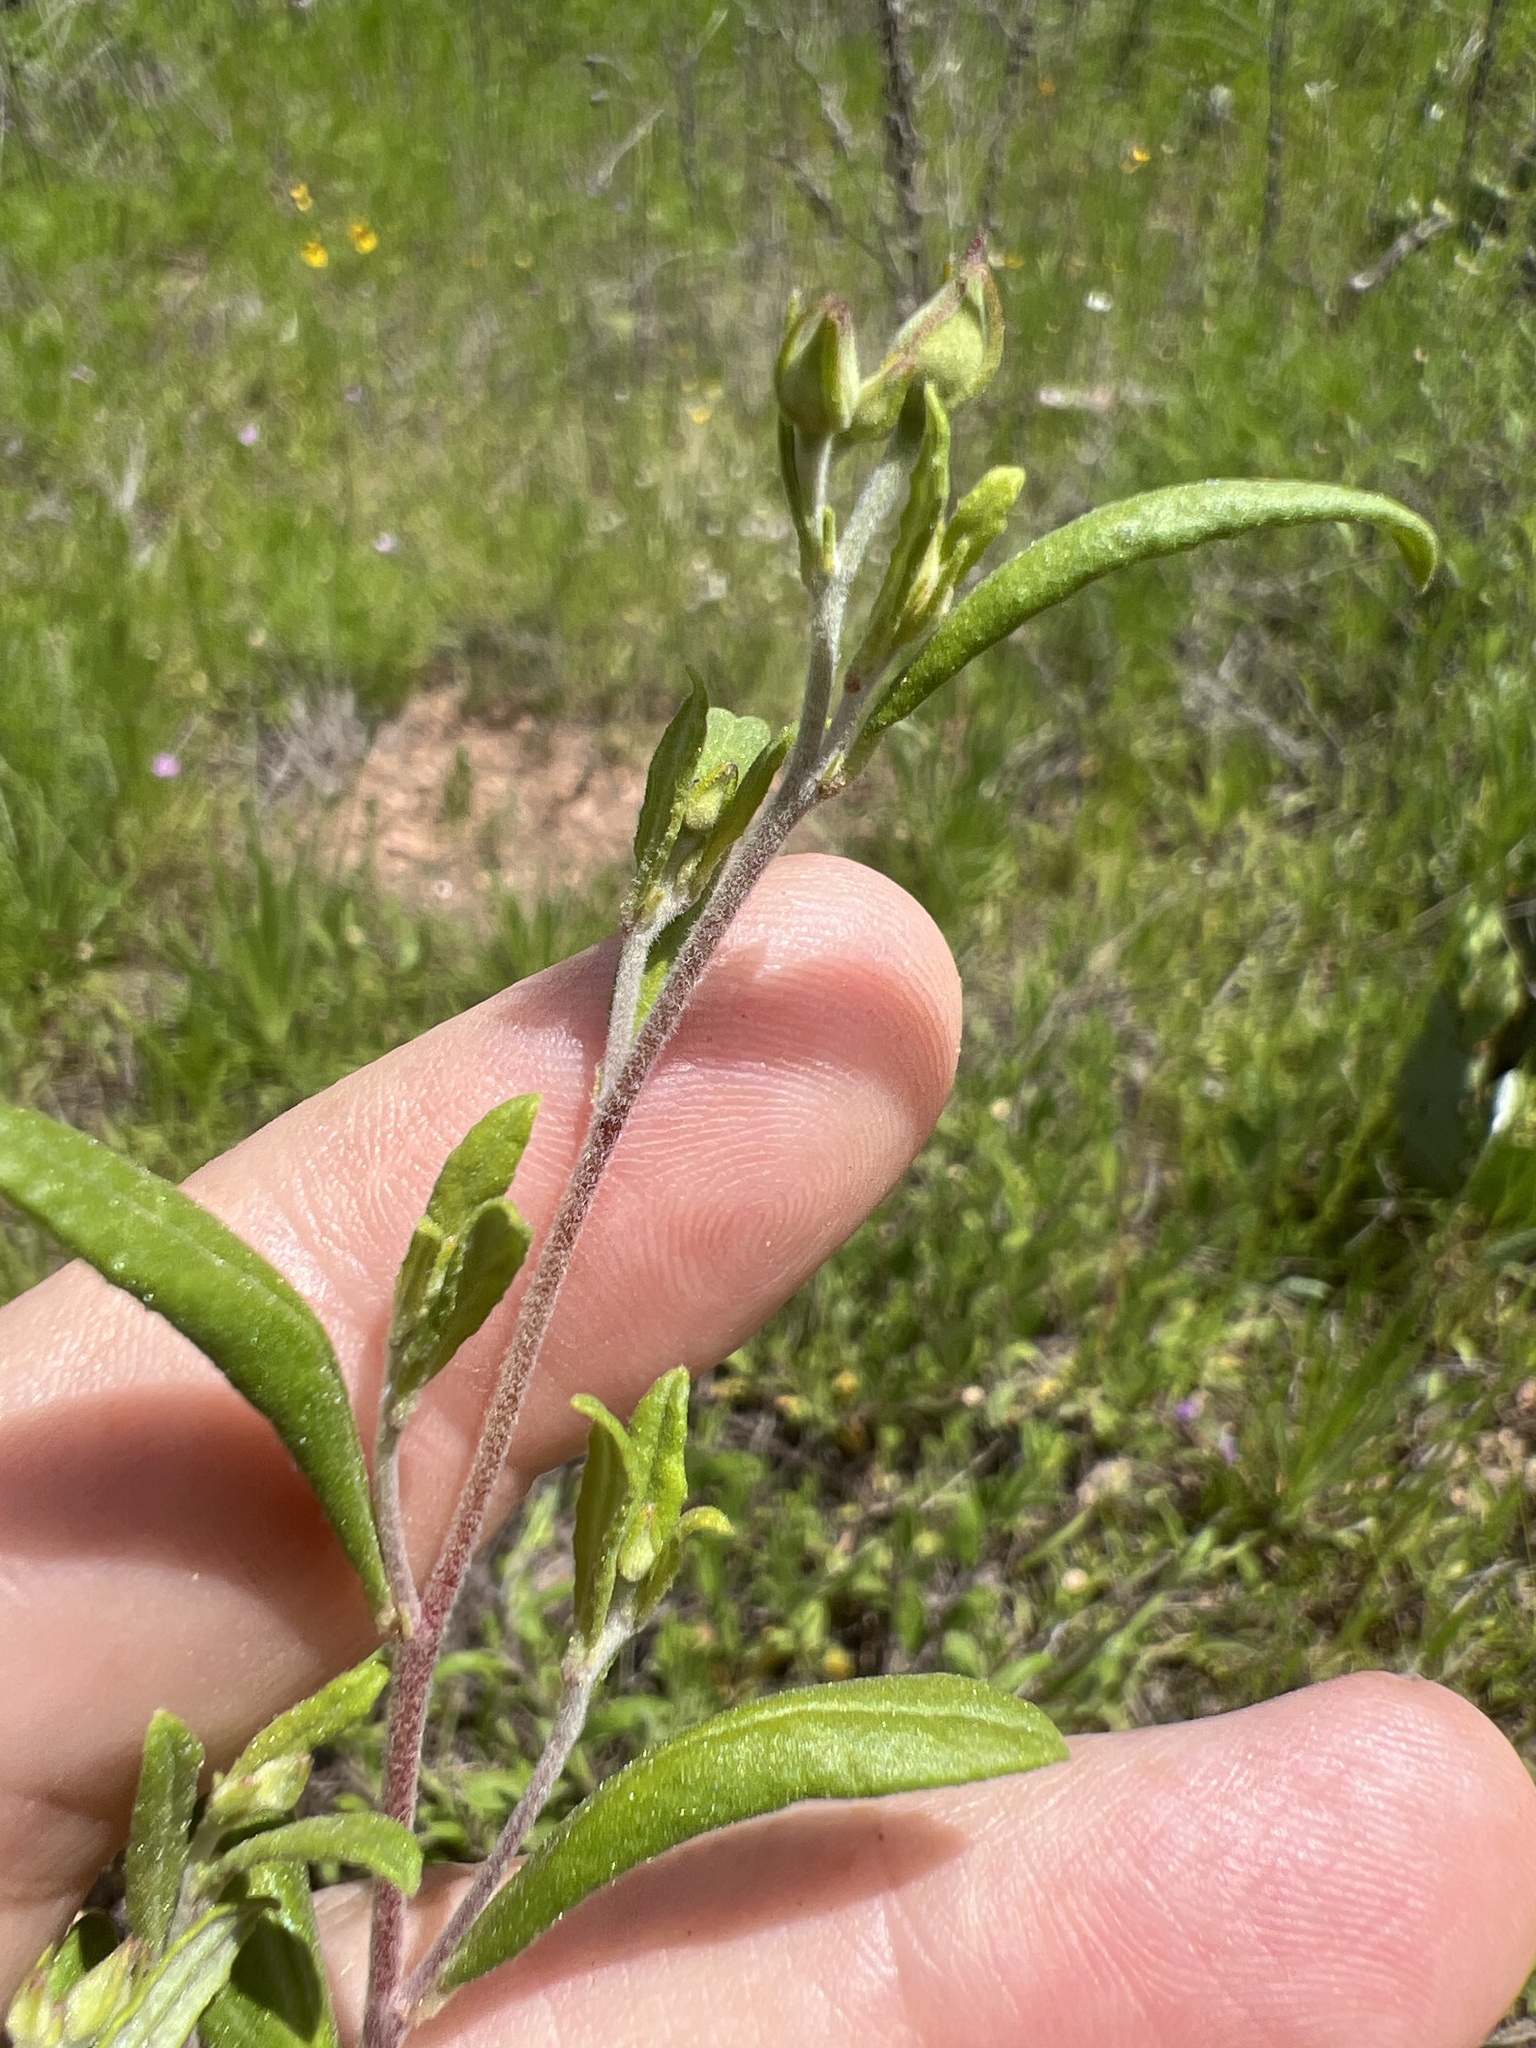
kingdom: Plantae
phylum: Tracheophyta
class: Magnoliopsida
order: Malvales
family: Cistaceae
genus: Crocanthemum
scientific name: Crocanthemum georgianum
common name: Georgia frostweed
